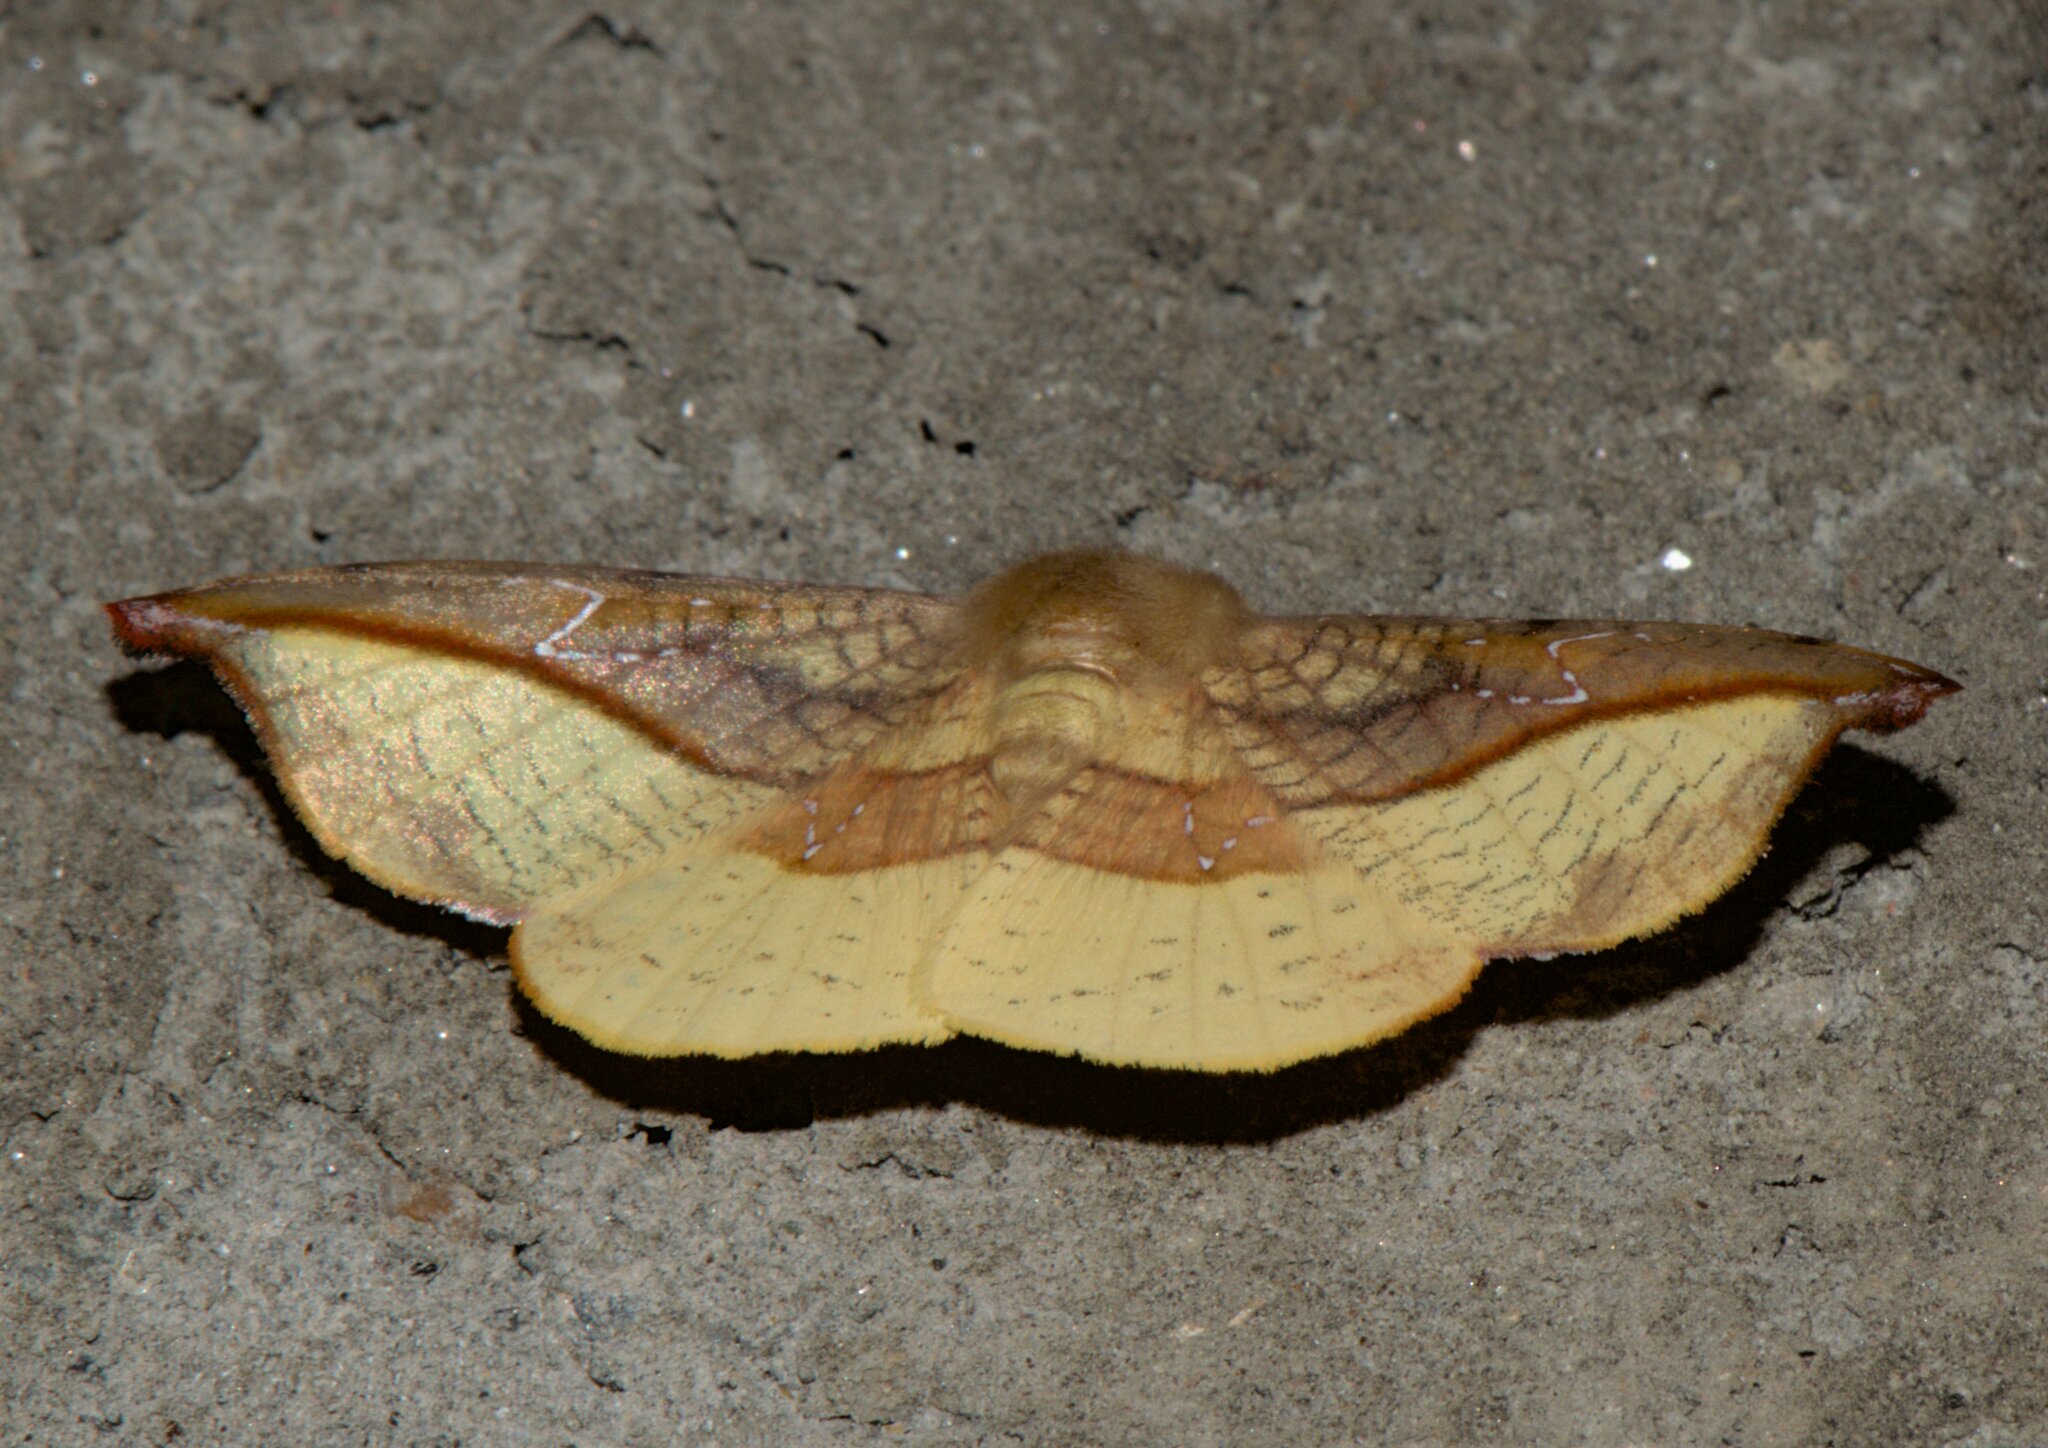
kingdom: Animalia
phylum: Arthropoda
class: Insecta
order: Lepidoptera
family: Drepanidae
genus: Oreta
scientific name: Oreta vatama
